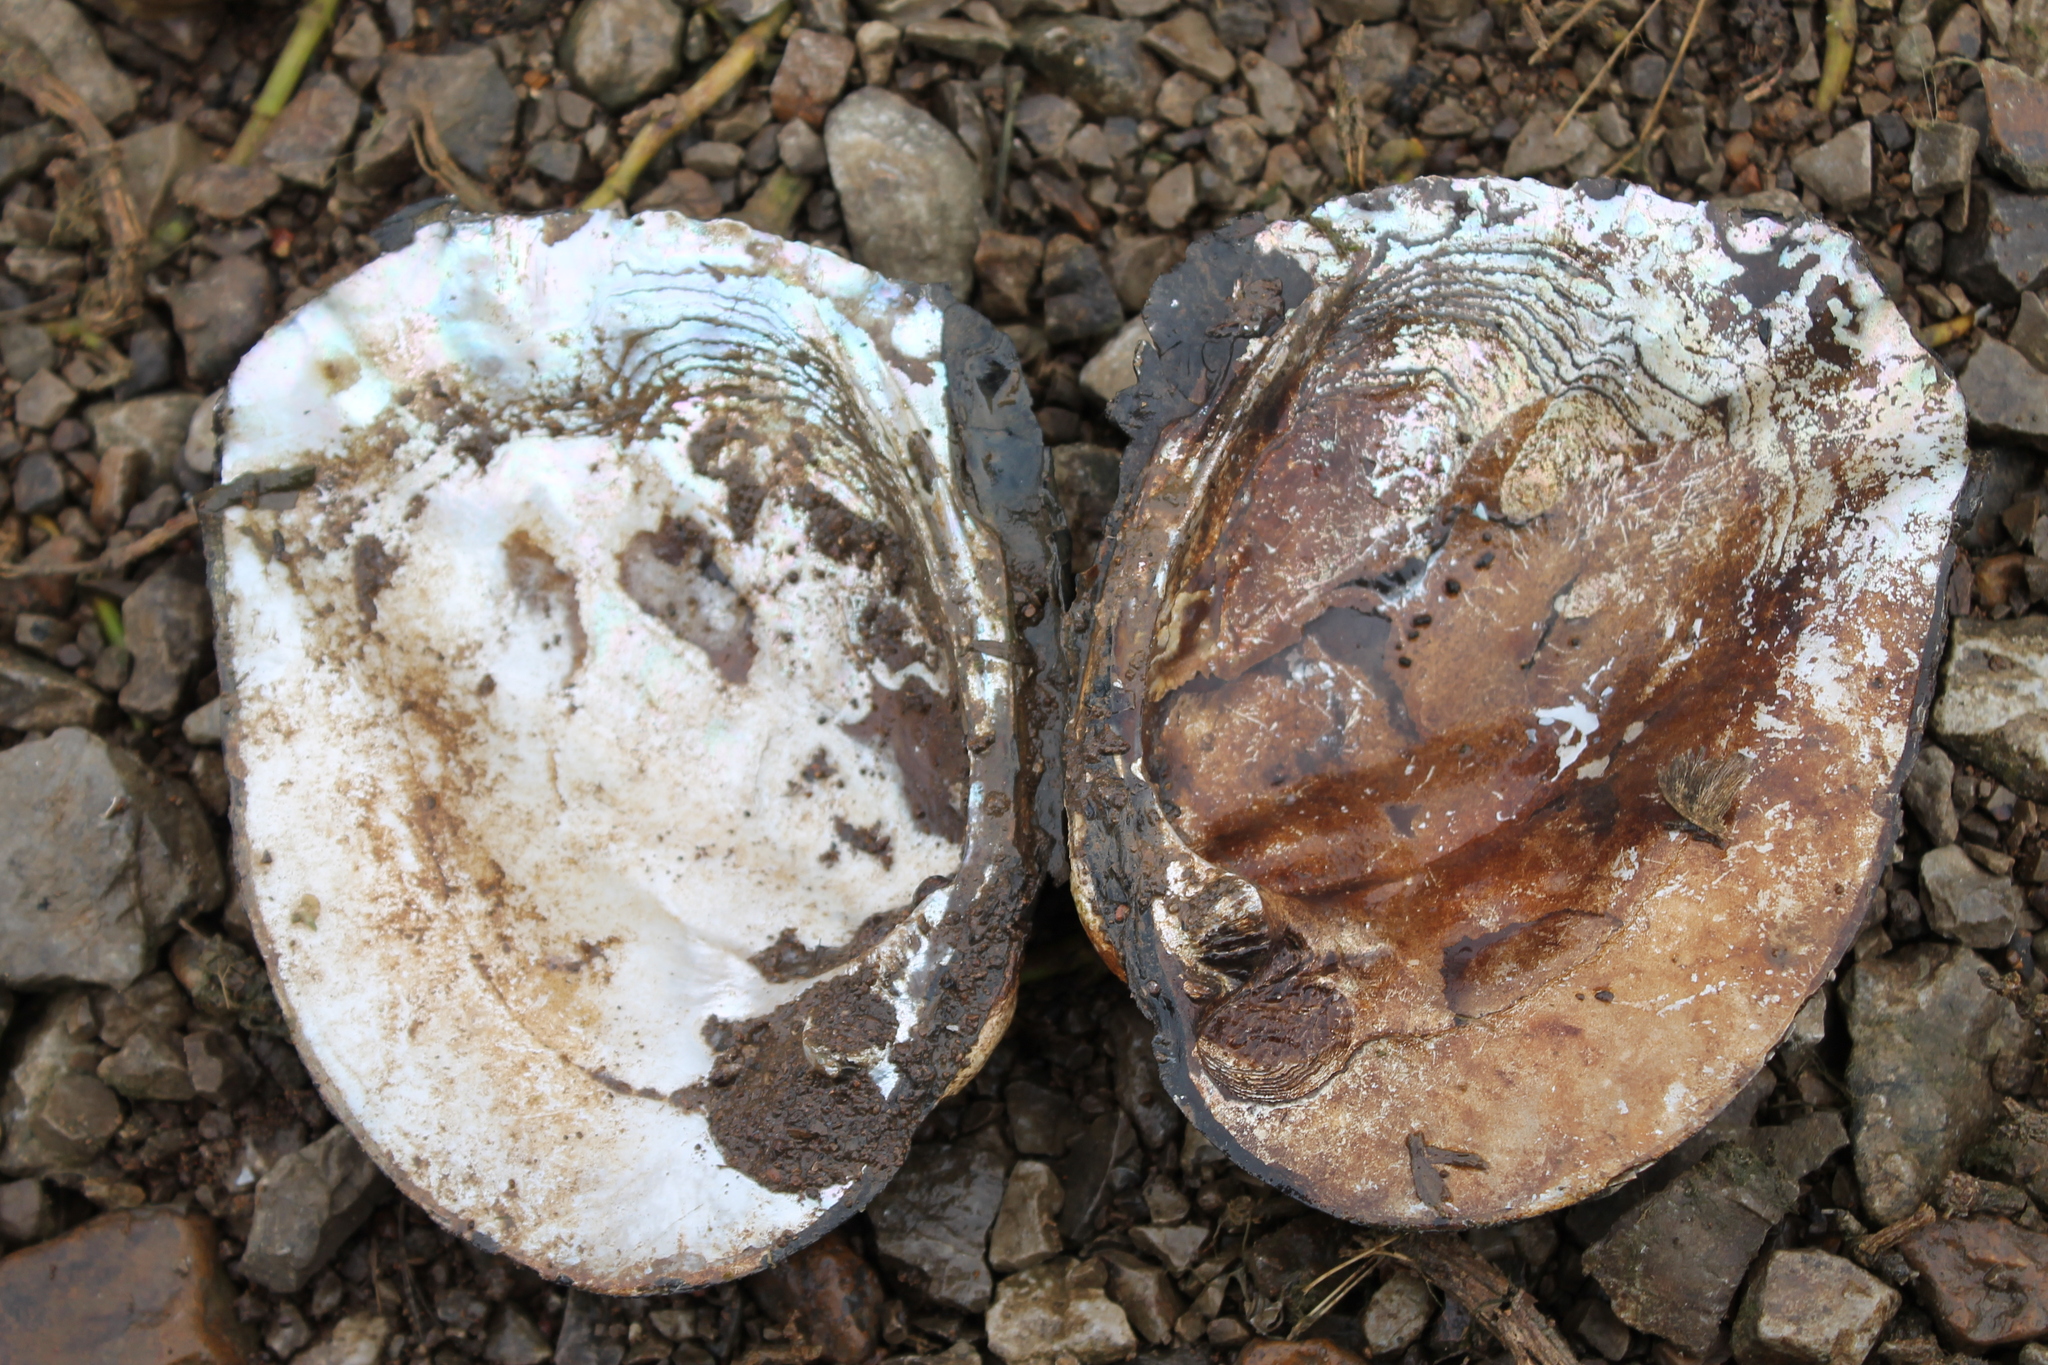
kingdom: Animalia
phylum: Mollusca
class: Bivalvia
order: Unionida
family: Unionidae
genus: Megalonaias
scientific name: Megalonaias nervosa
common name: Washboard
